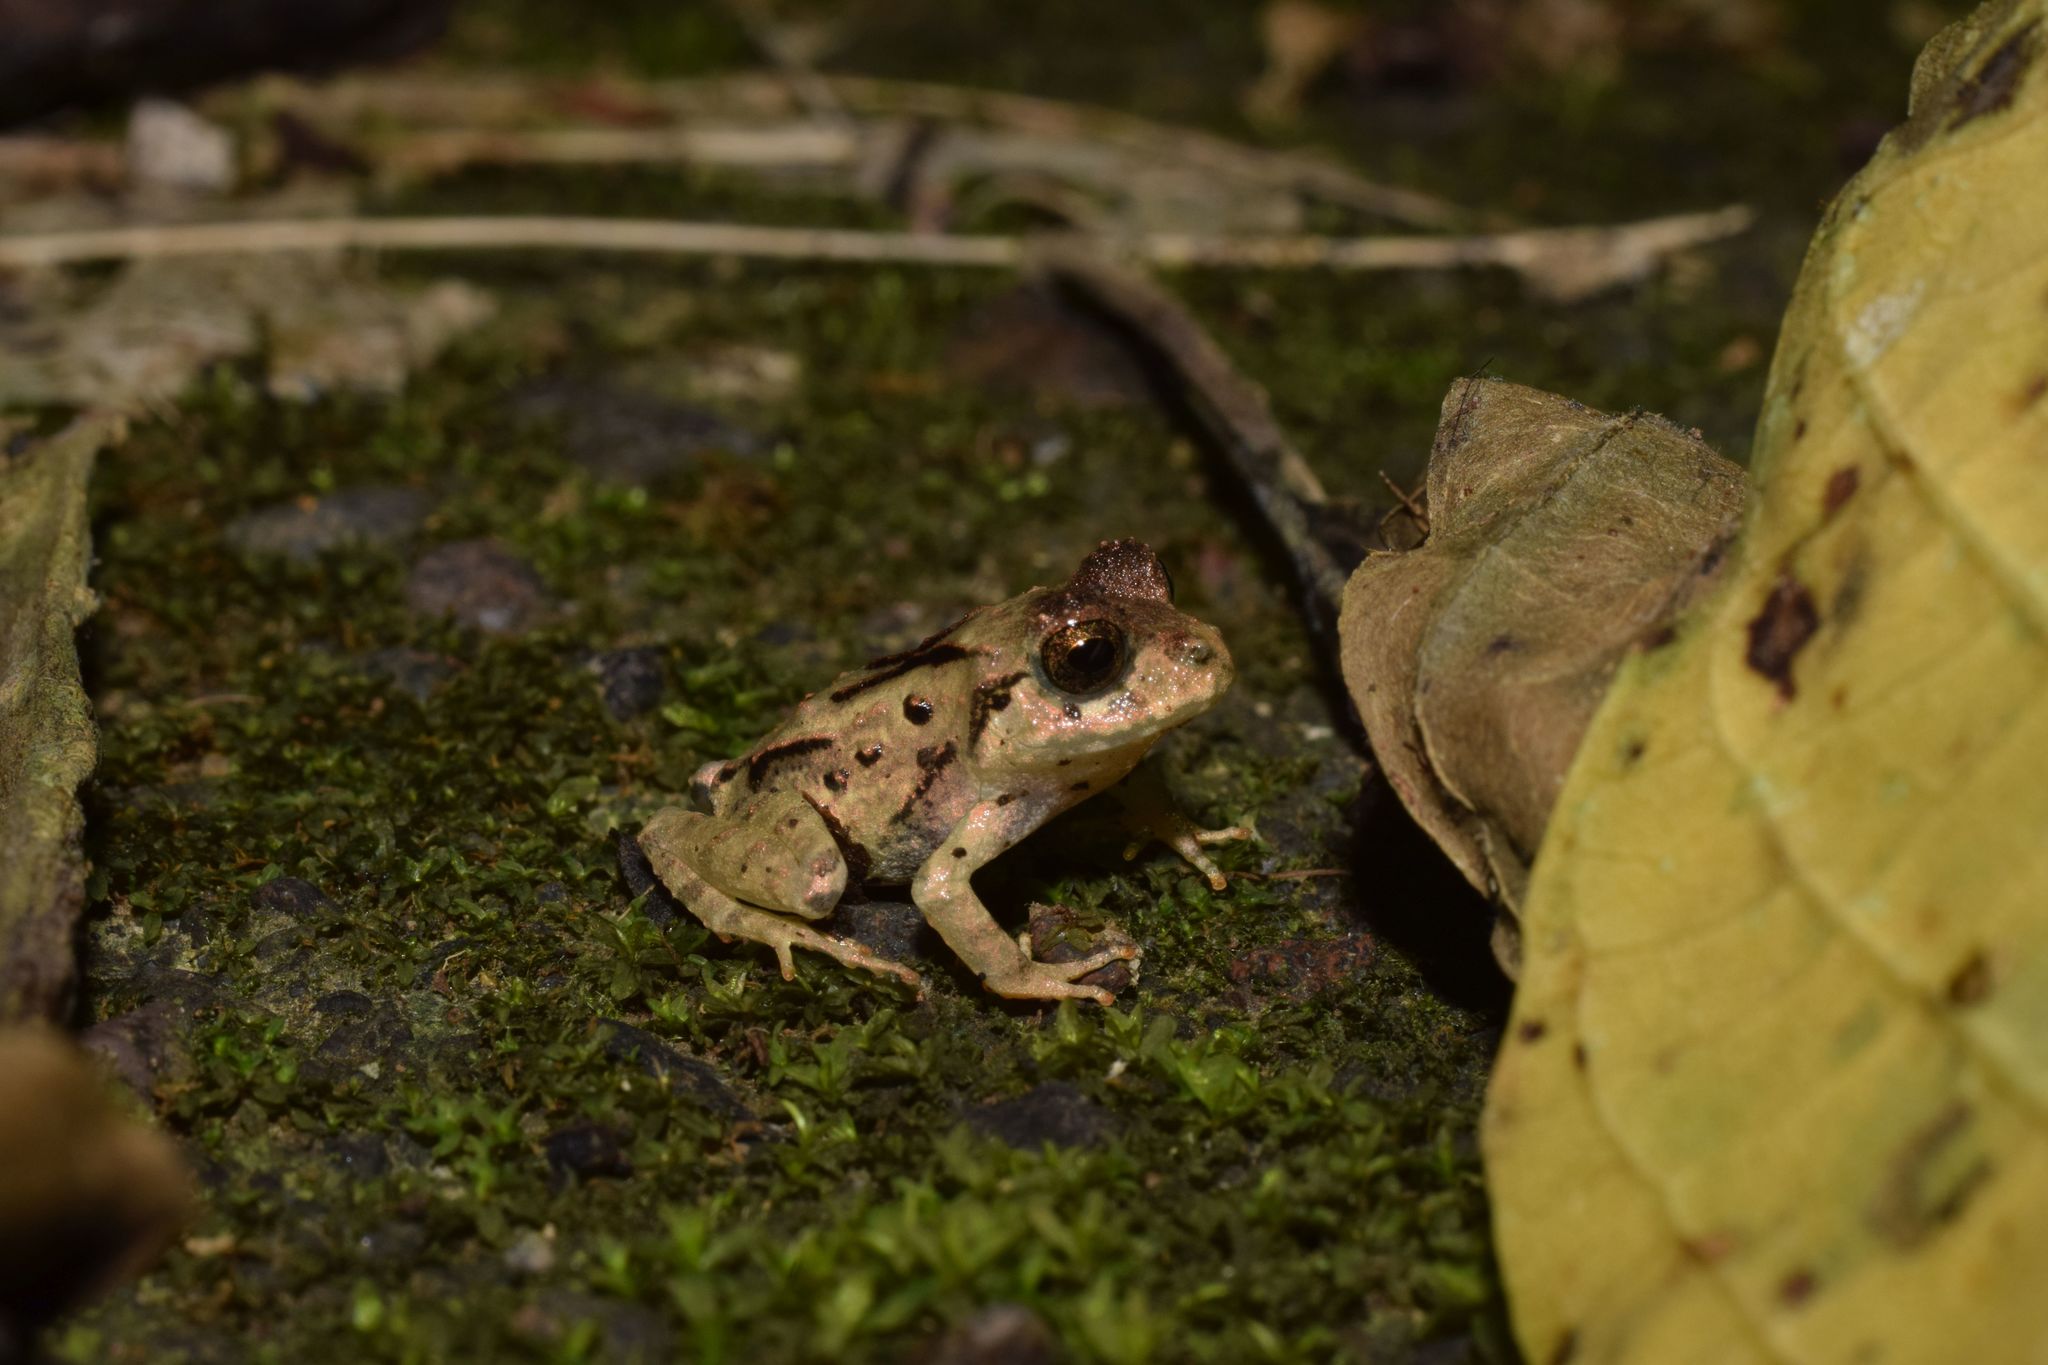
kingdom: Animalia
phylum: Chordata
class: Amphibia
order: Anura
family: Craugastoridae
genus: Craugastor
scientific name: Craugastor megacephalus
